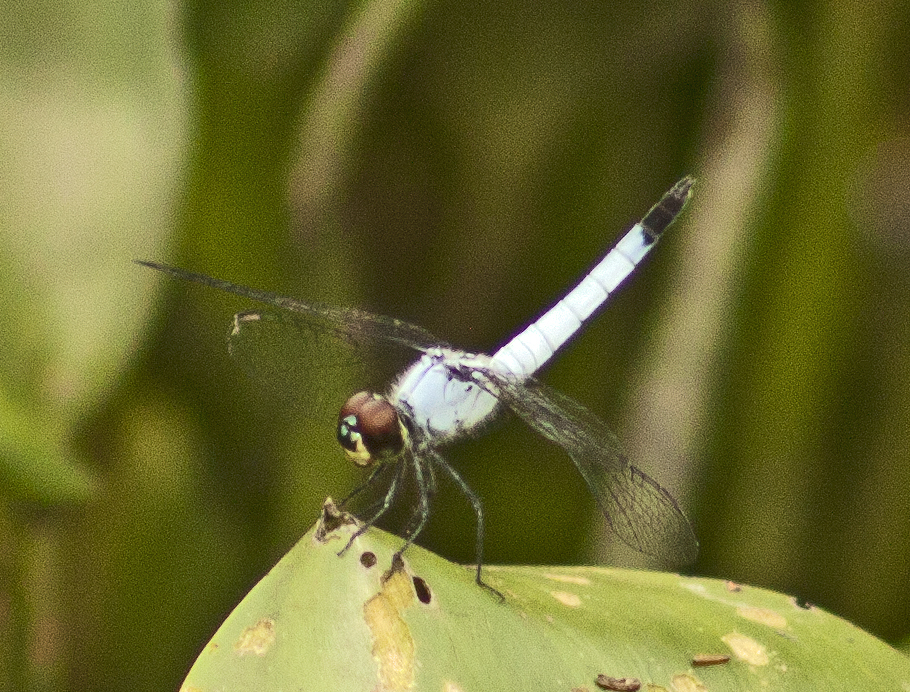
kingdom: Animalia
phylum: Arthropoda
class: Insecta
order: Odonata
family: Libellulidae
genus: Brachydiplax
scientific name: Brachydiplax denticauda
